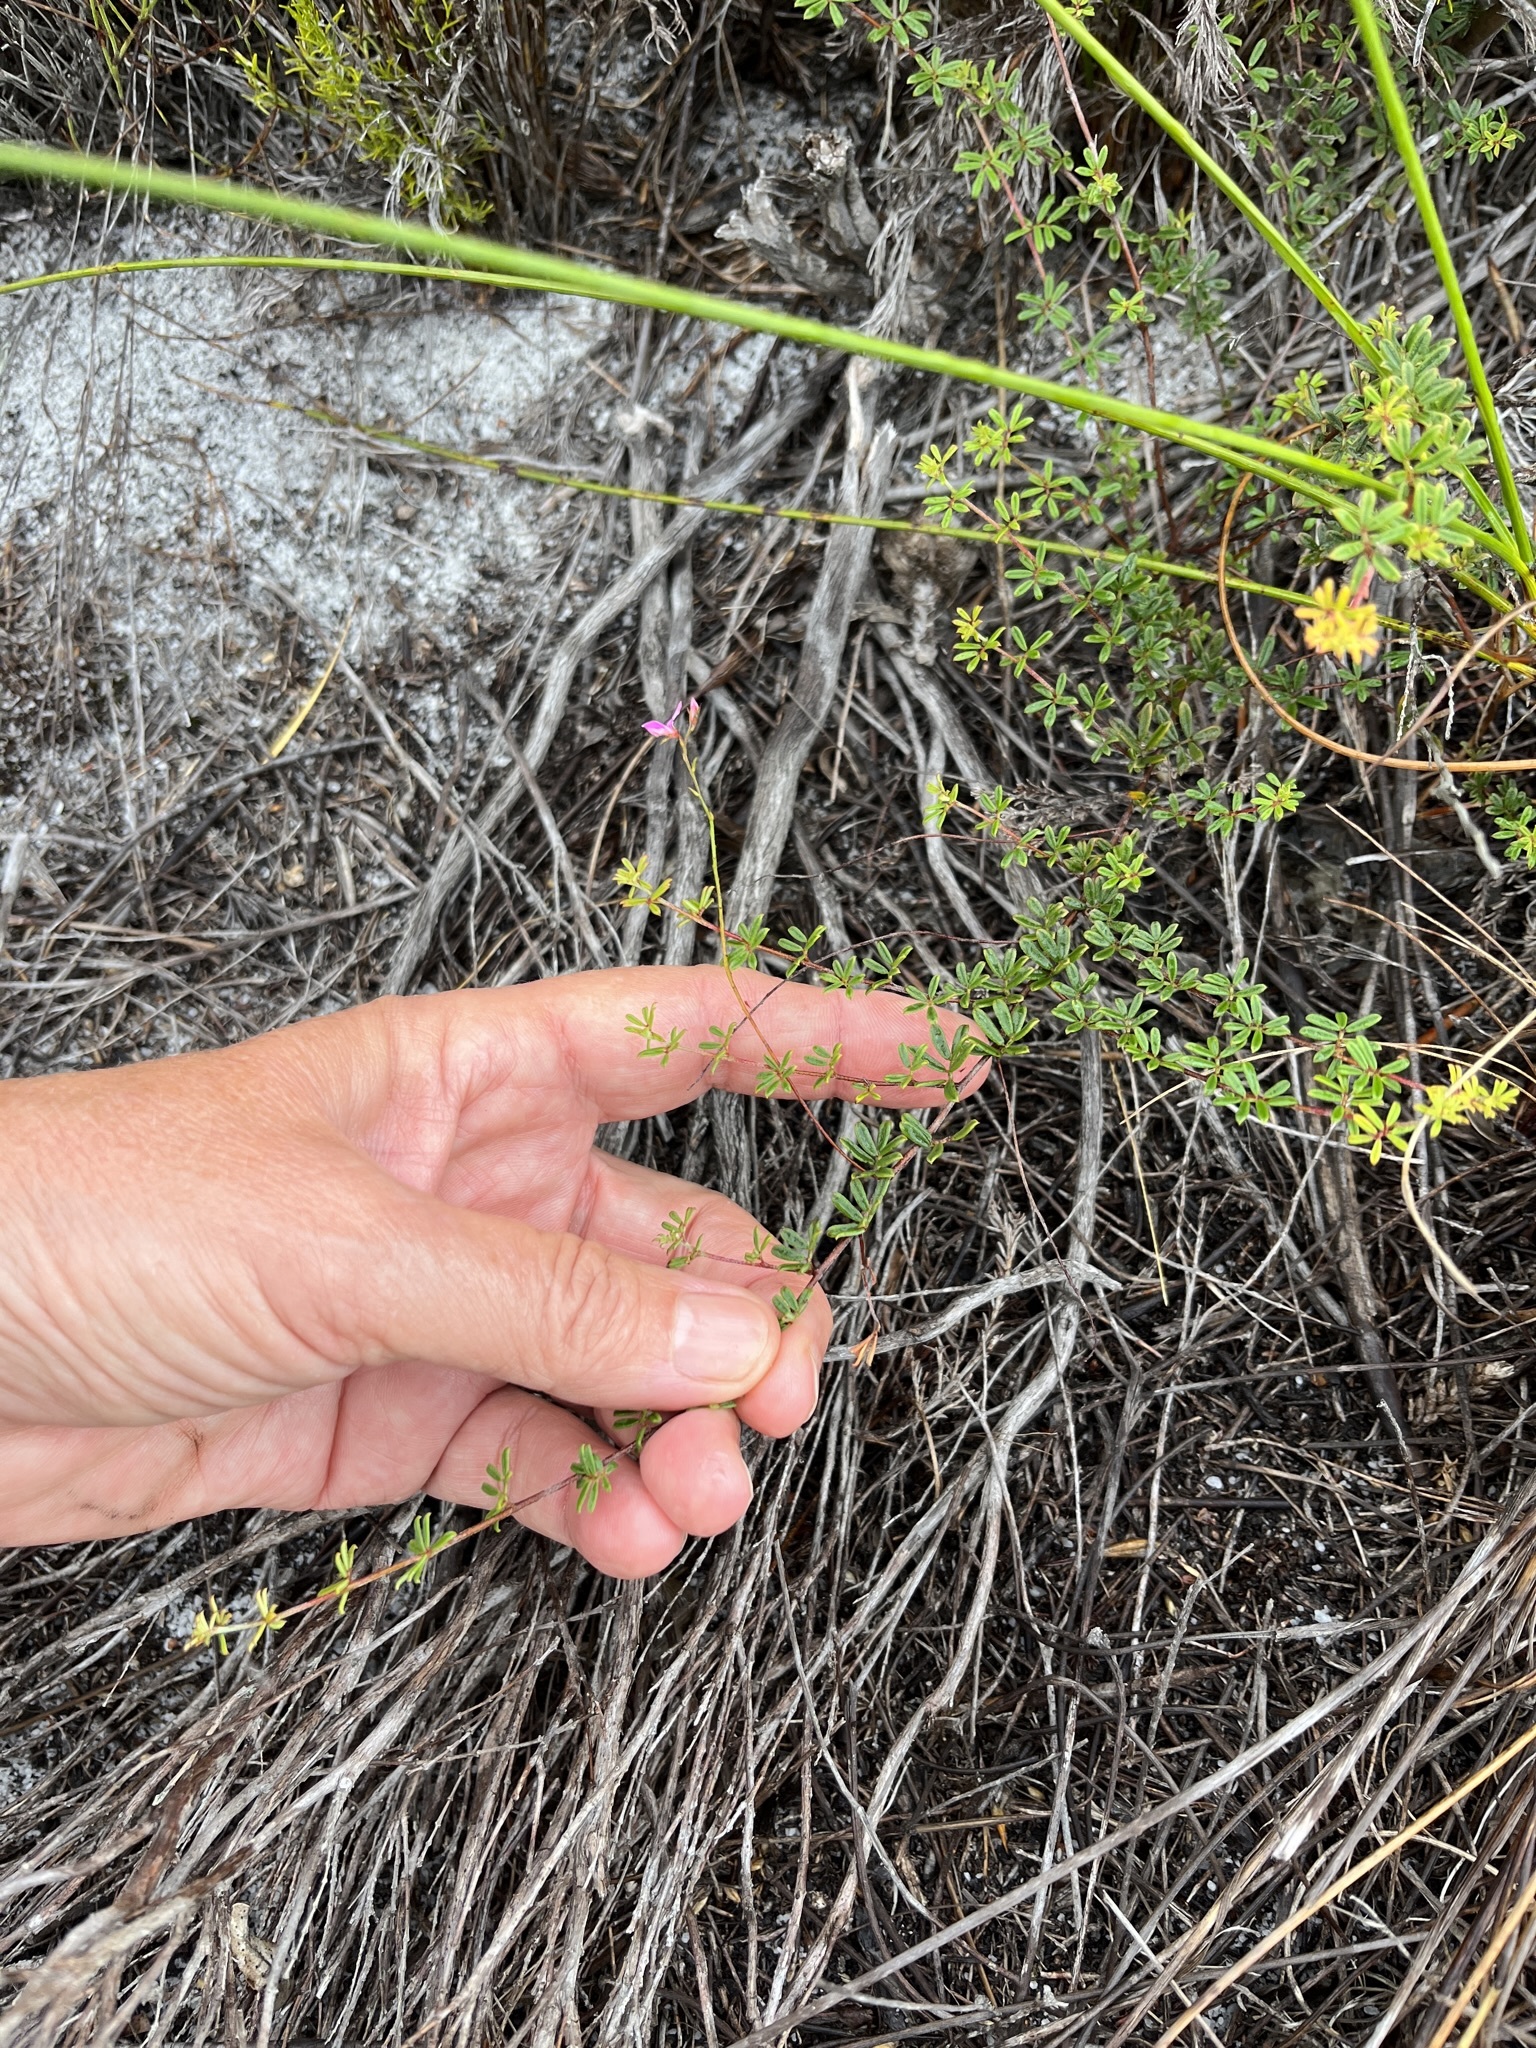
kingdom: Plantae
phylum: Tracheophyta
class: Magnoliopsida
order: Fabales
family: Fabaceae
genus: Indigofera
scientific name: Indigofera angustifolia
